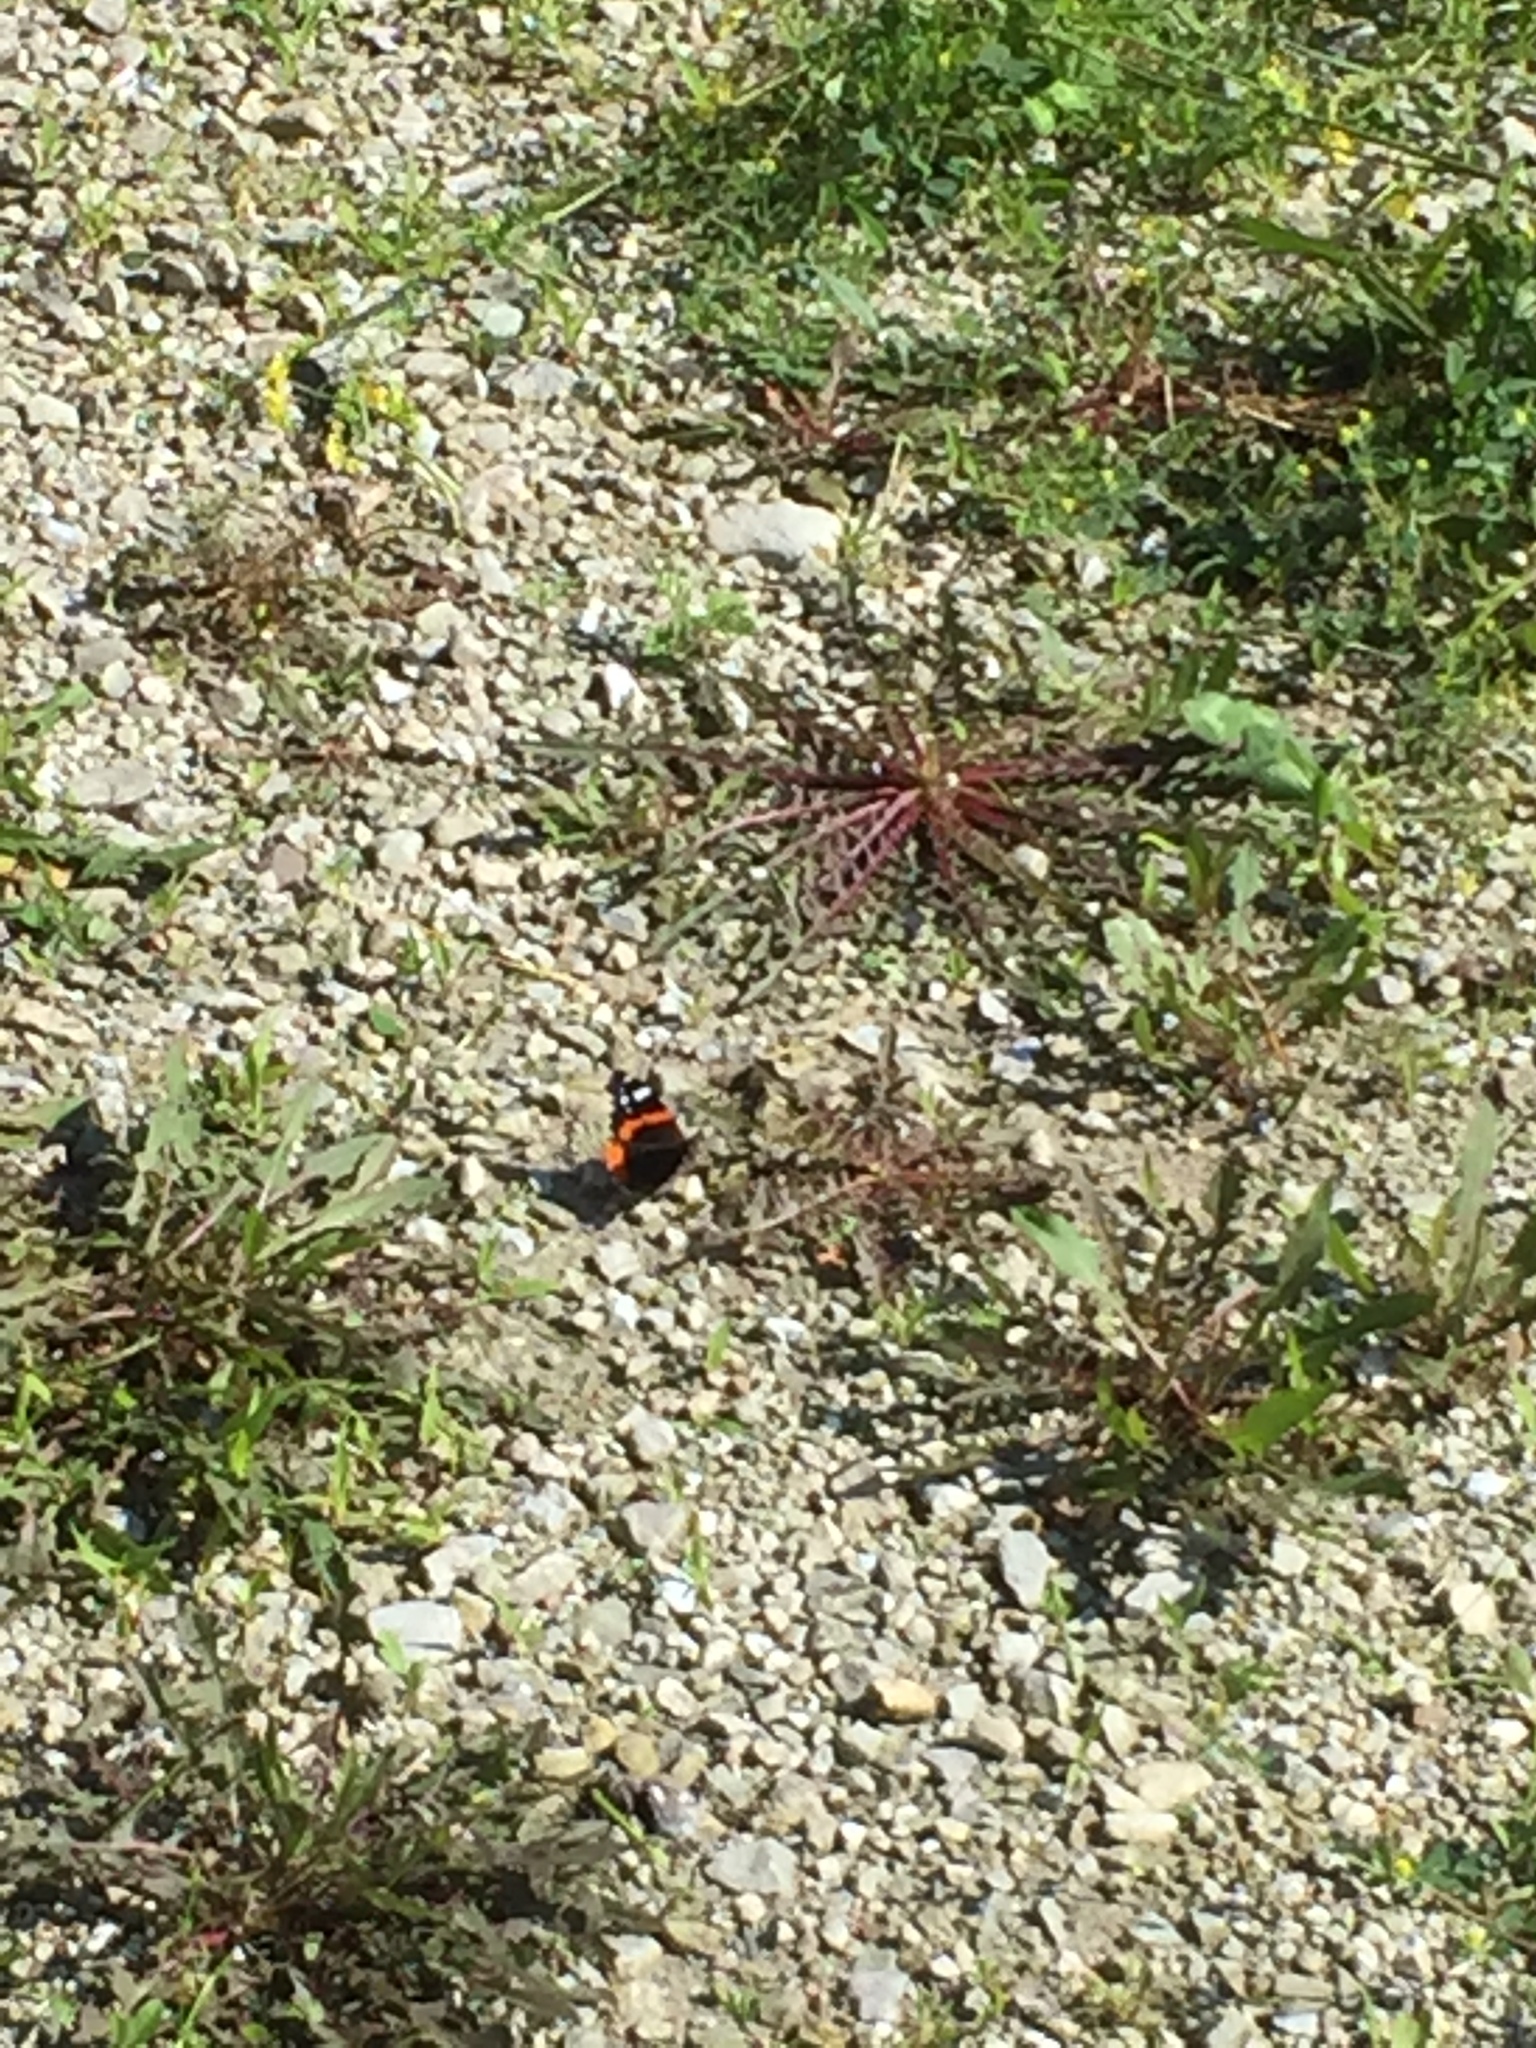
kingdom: Animalia
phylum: Arthropoda
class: Insecta
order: Lepidoptera
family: Nymphalidae
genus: Vanessa
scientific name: Vanessa atalanta
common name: Red admiral
